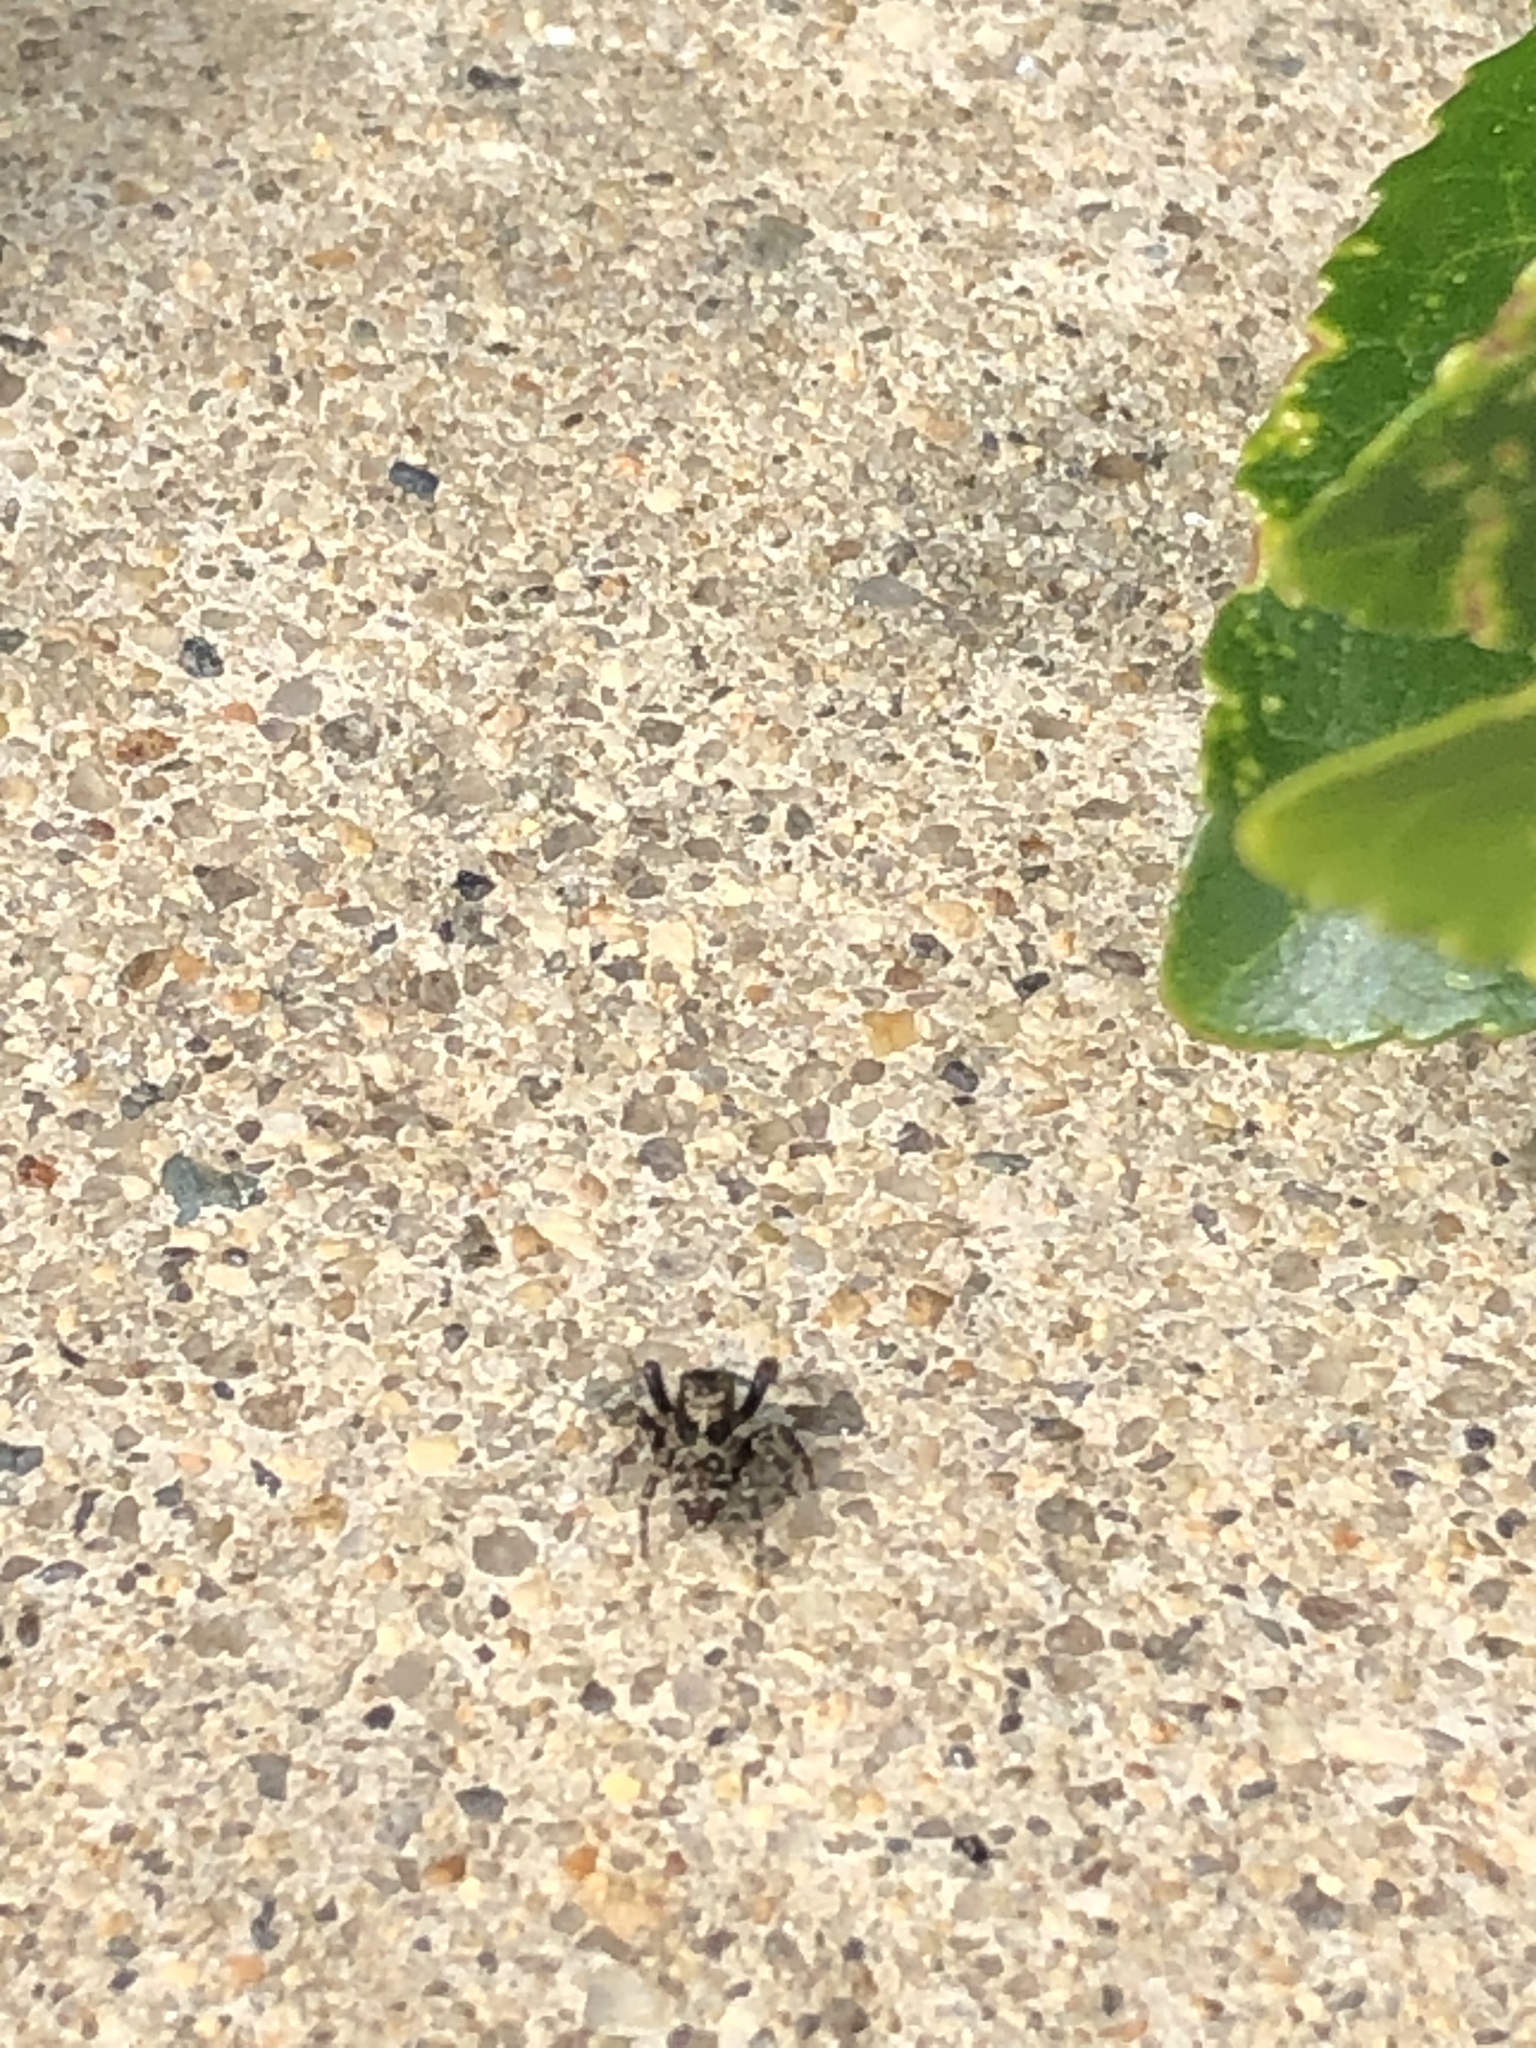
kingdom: Animalia
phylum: Arthropoda
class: Arachnida
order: Araneae
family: Salticidae
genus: Pseudeuophrys
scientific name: Pseudeuophrys erratica
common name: Jumping spider
